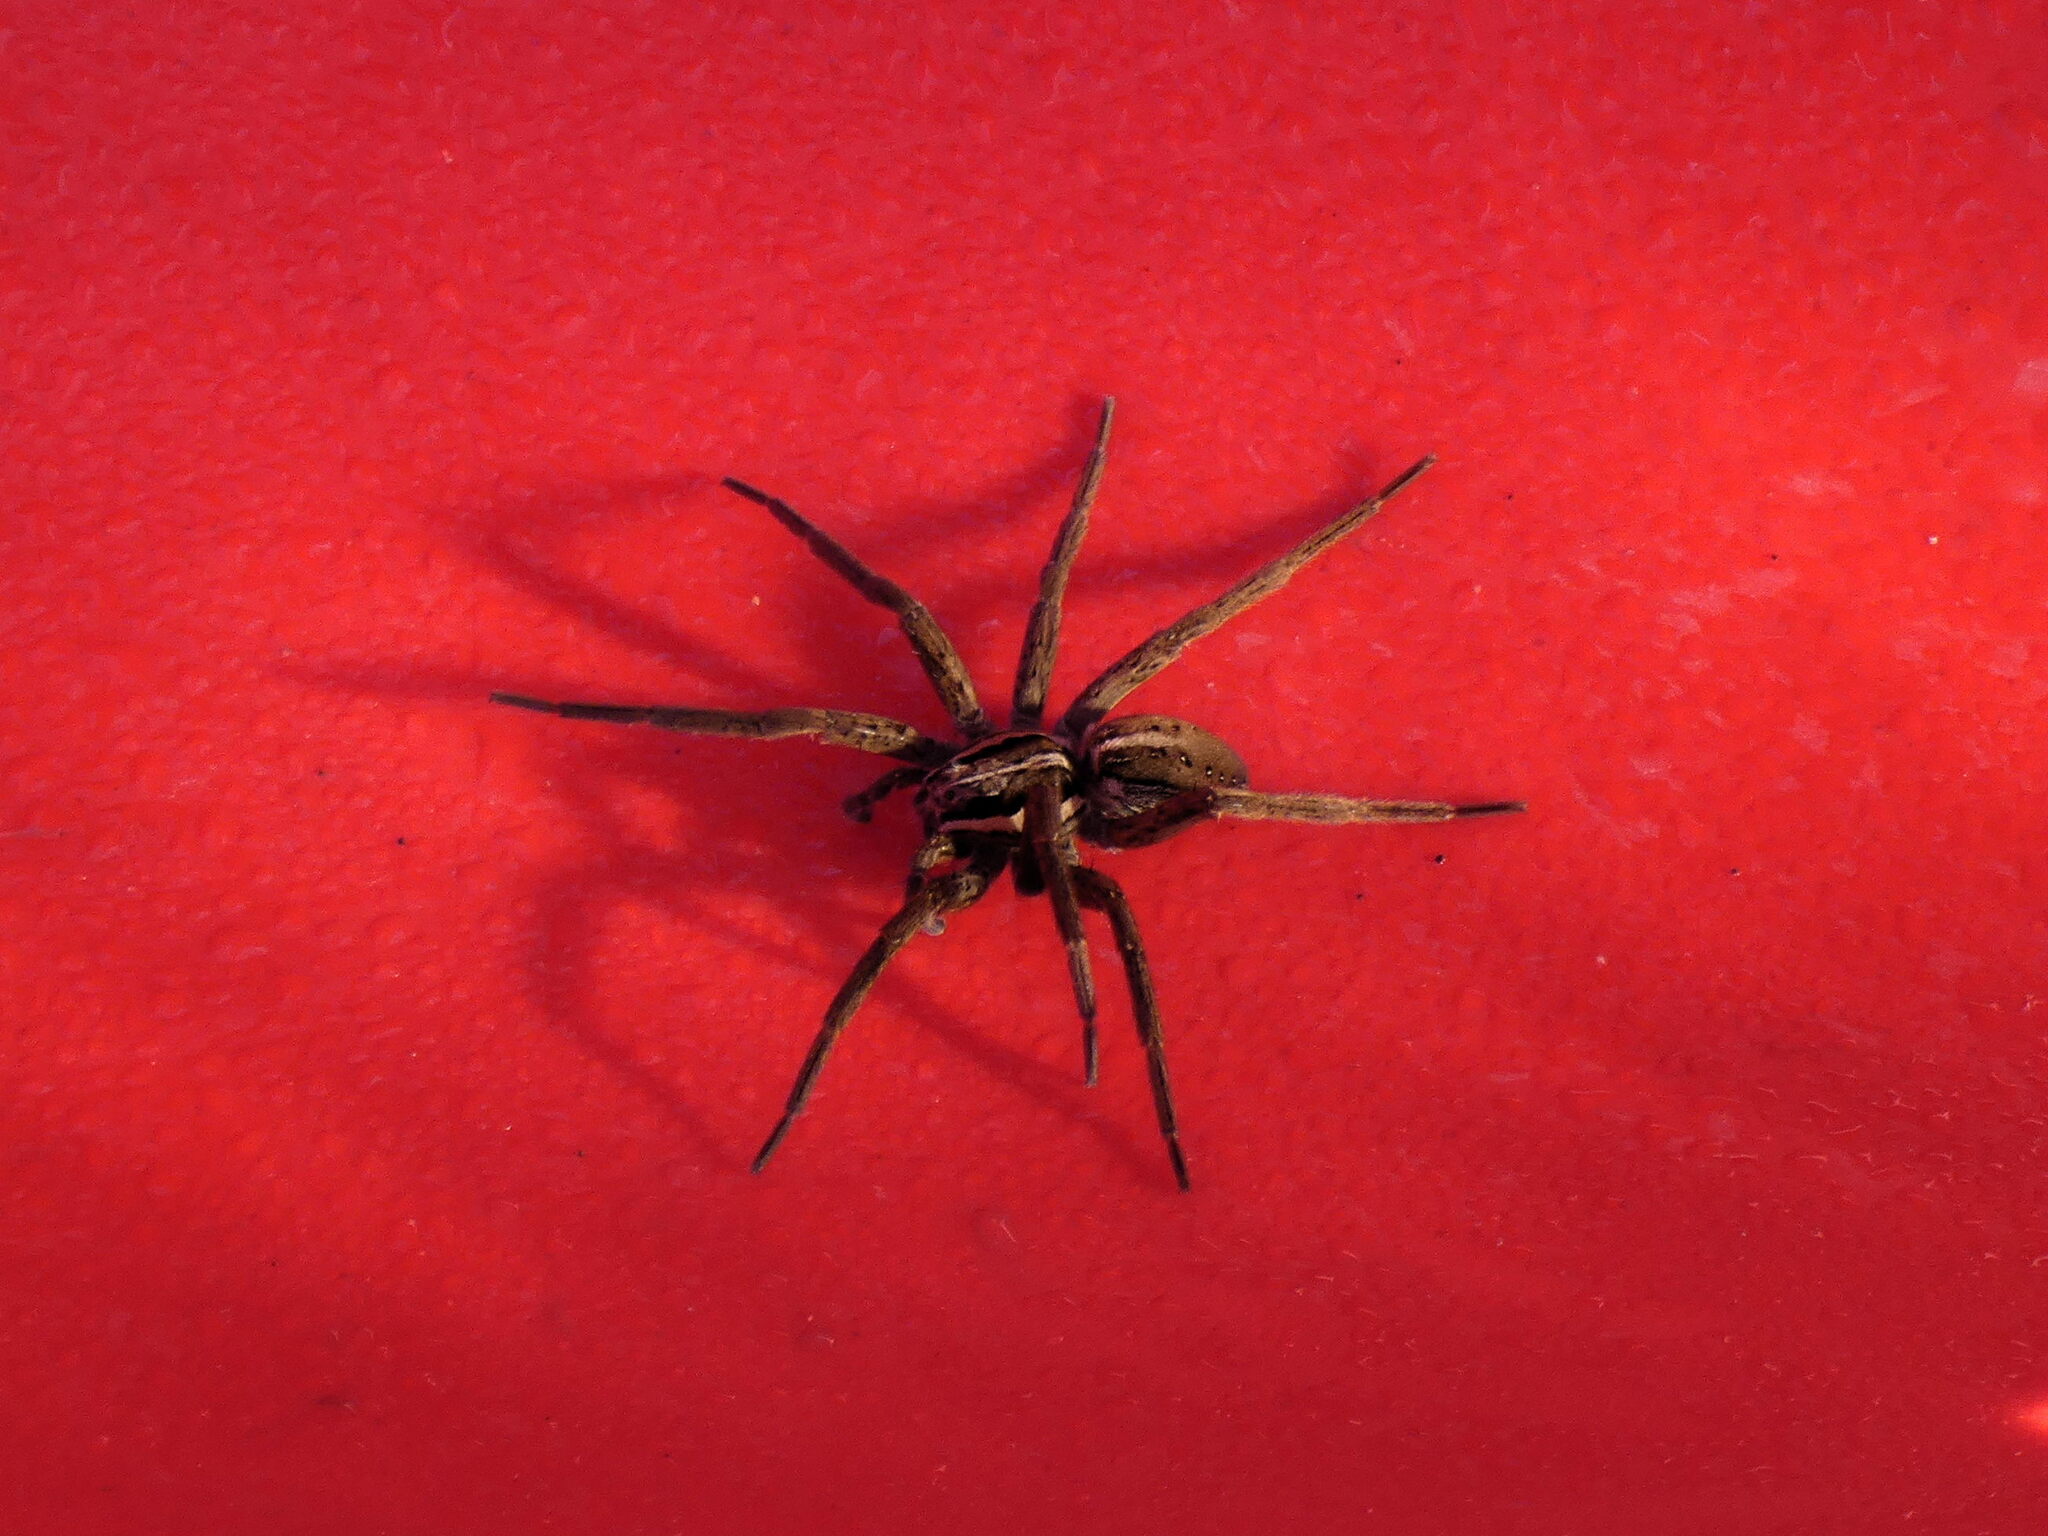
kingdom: Animalia
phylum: Arthropoda
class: Arachnida
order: Araneae
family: Pisauridae
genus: Dolomedes
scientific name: Dolomedes minor
